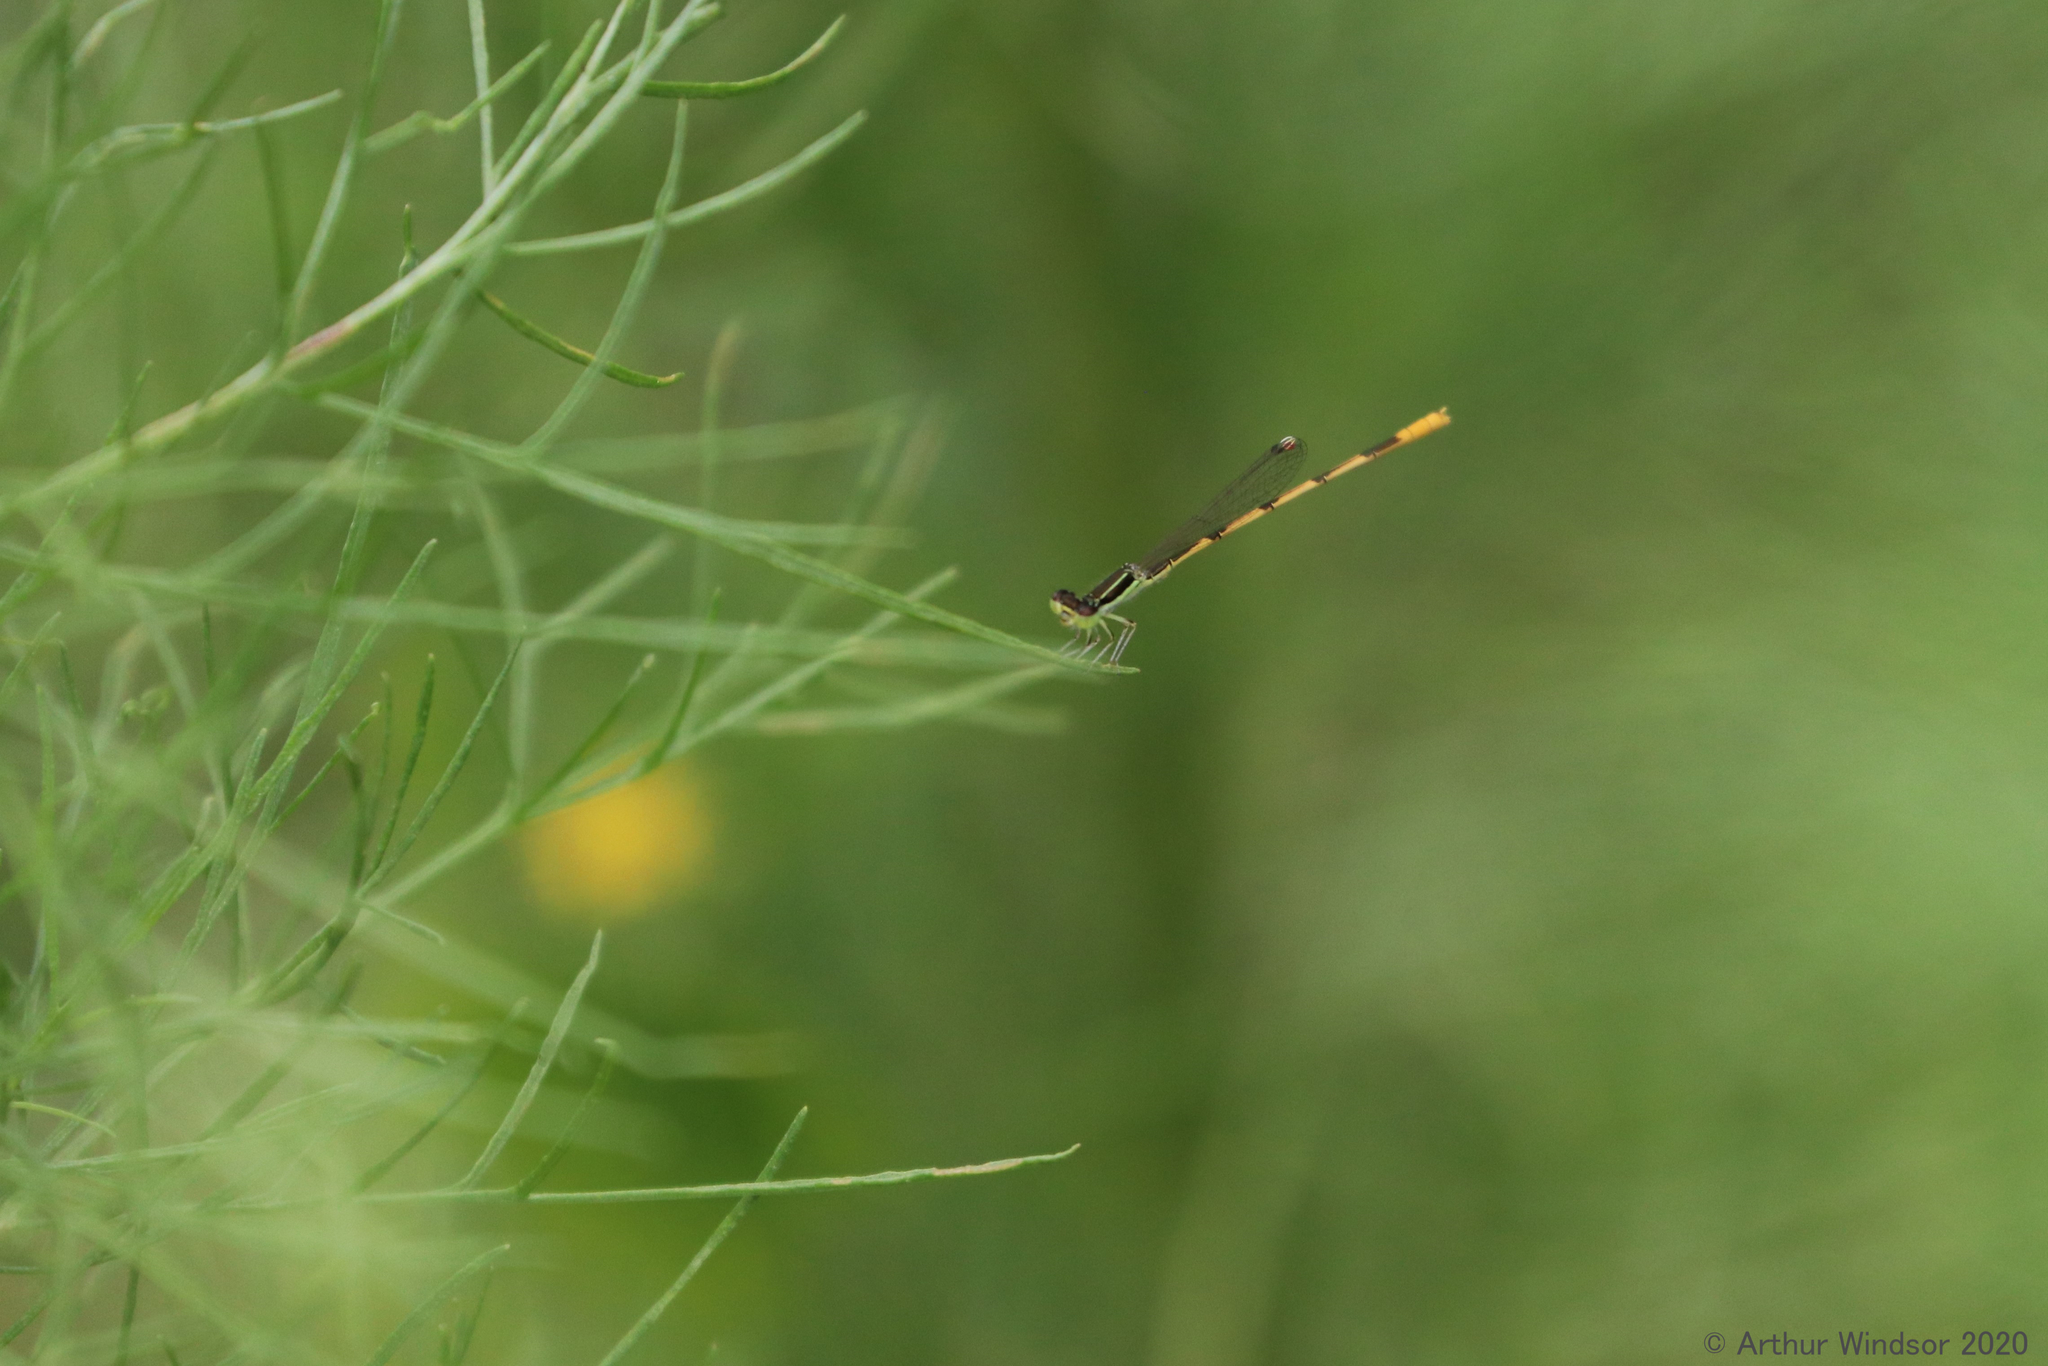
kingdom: Animalia
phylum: Arthropoda
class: Insecta
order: Odonata
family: Coenagrionidae
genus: Ischnura
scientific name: Ischnura hastata
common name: Citrine forktail
